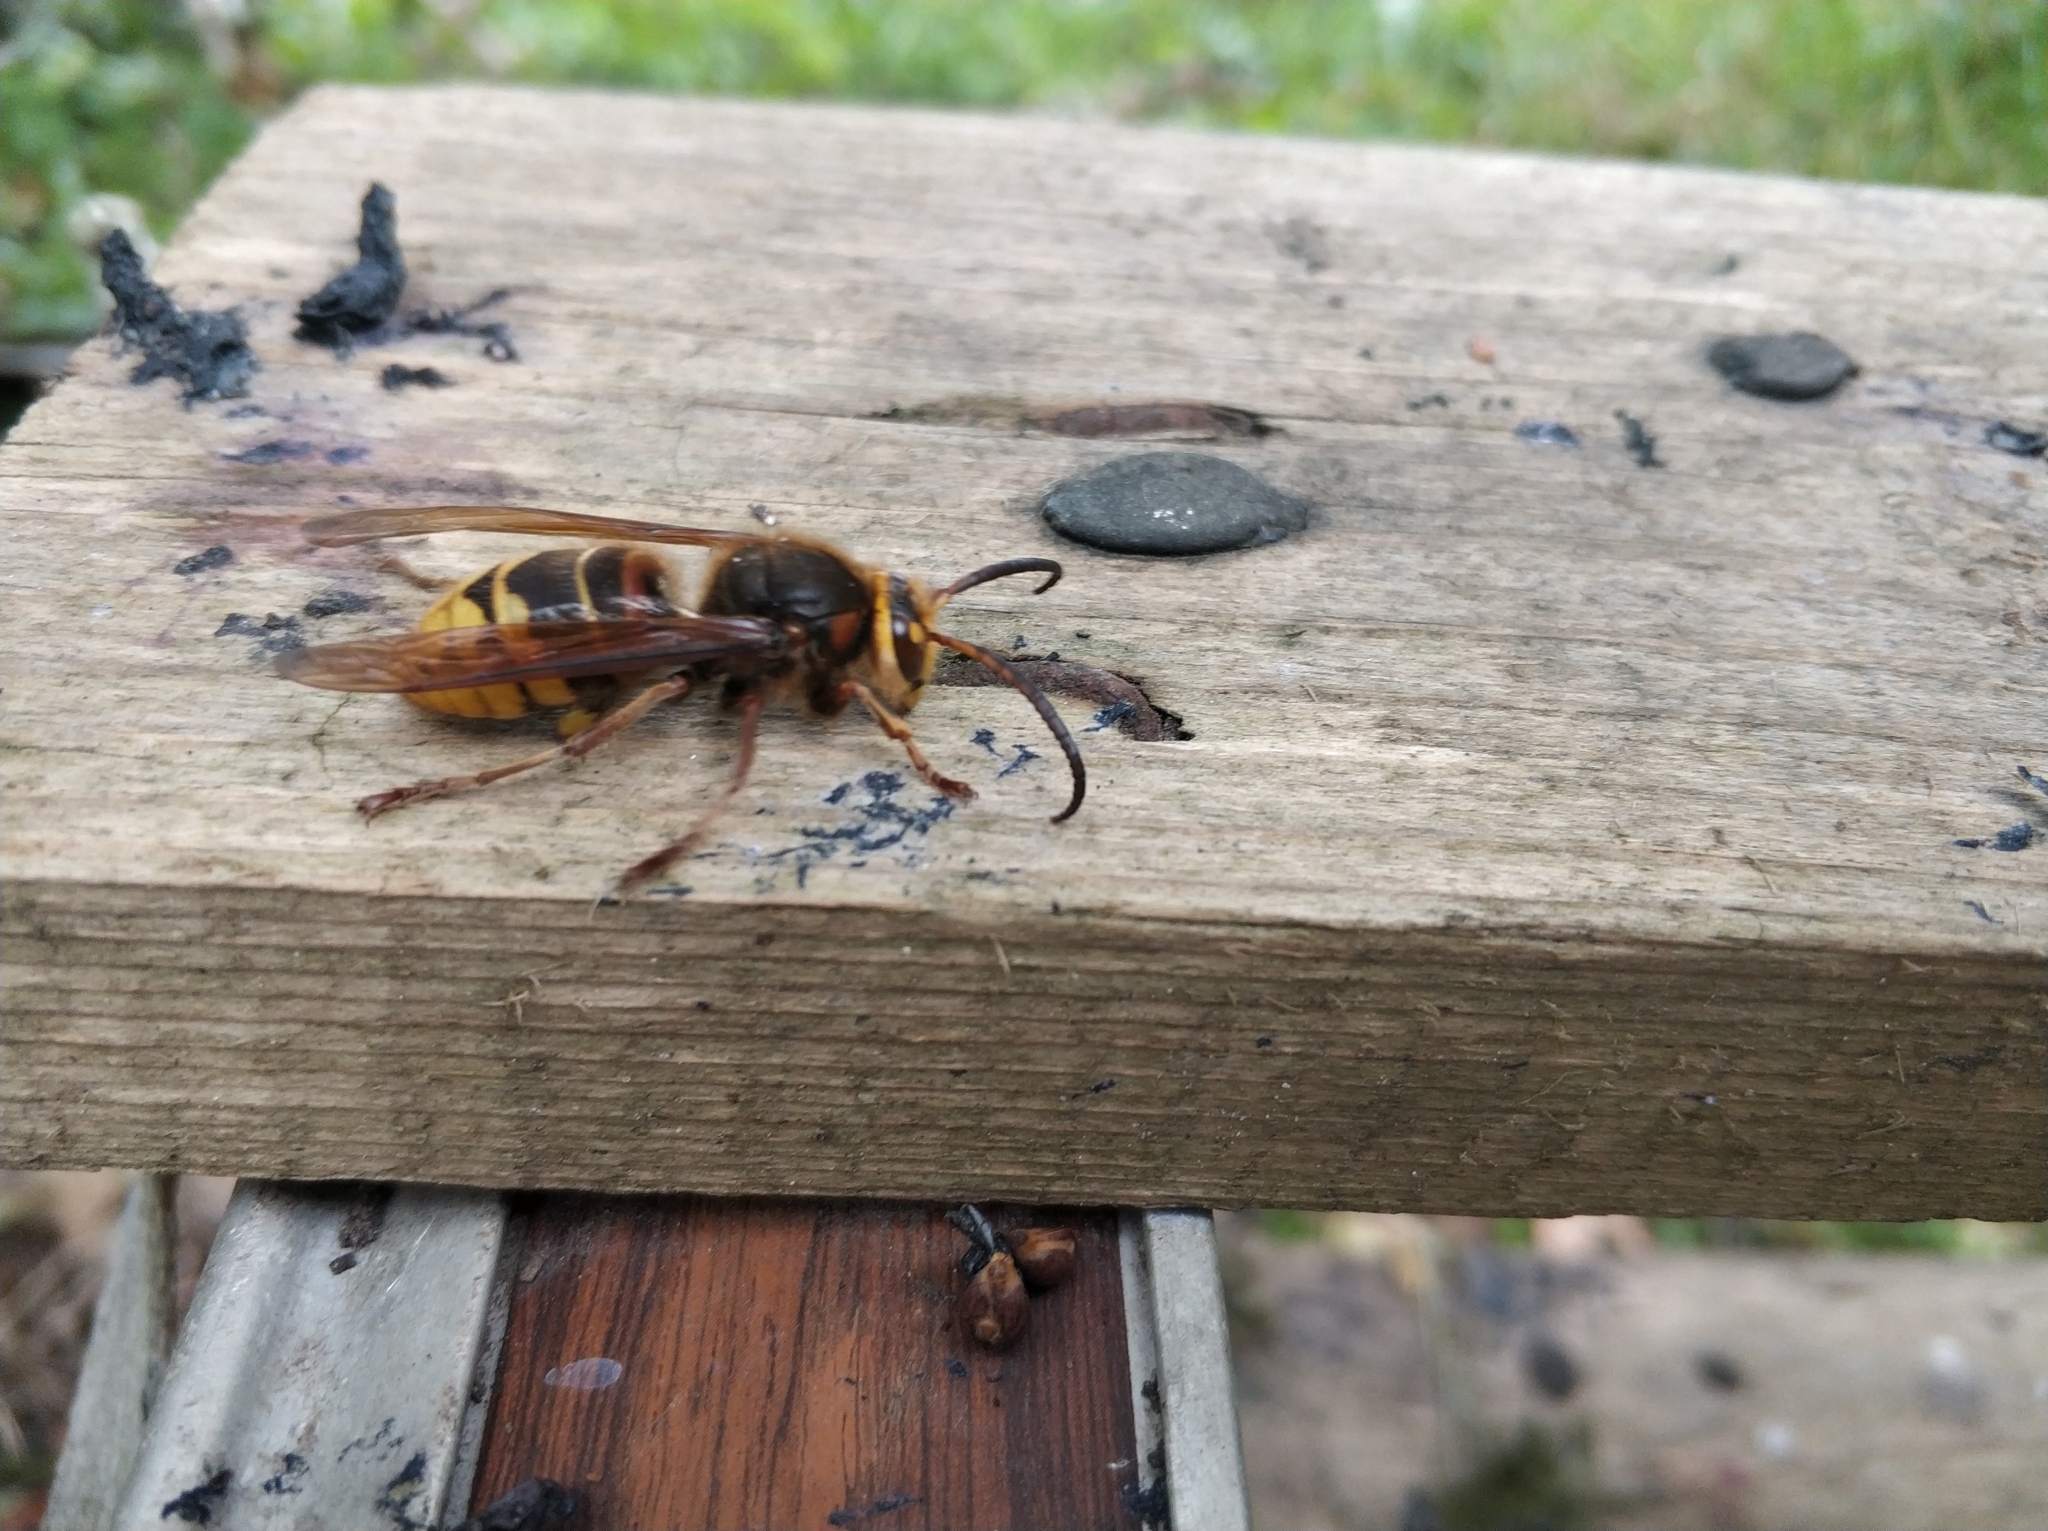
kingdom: Animalia
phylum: Arthropoda
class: Insecta
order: Hymenoptera
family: Vespidae
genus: Vespa
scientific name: Vespa crabro
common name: Hornet
